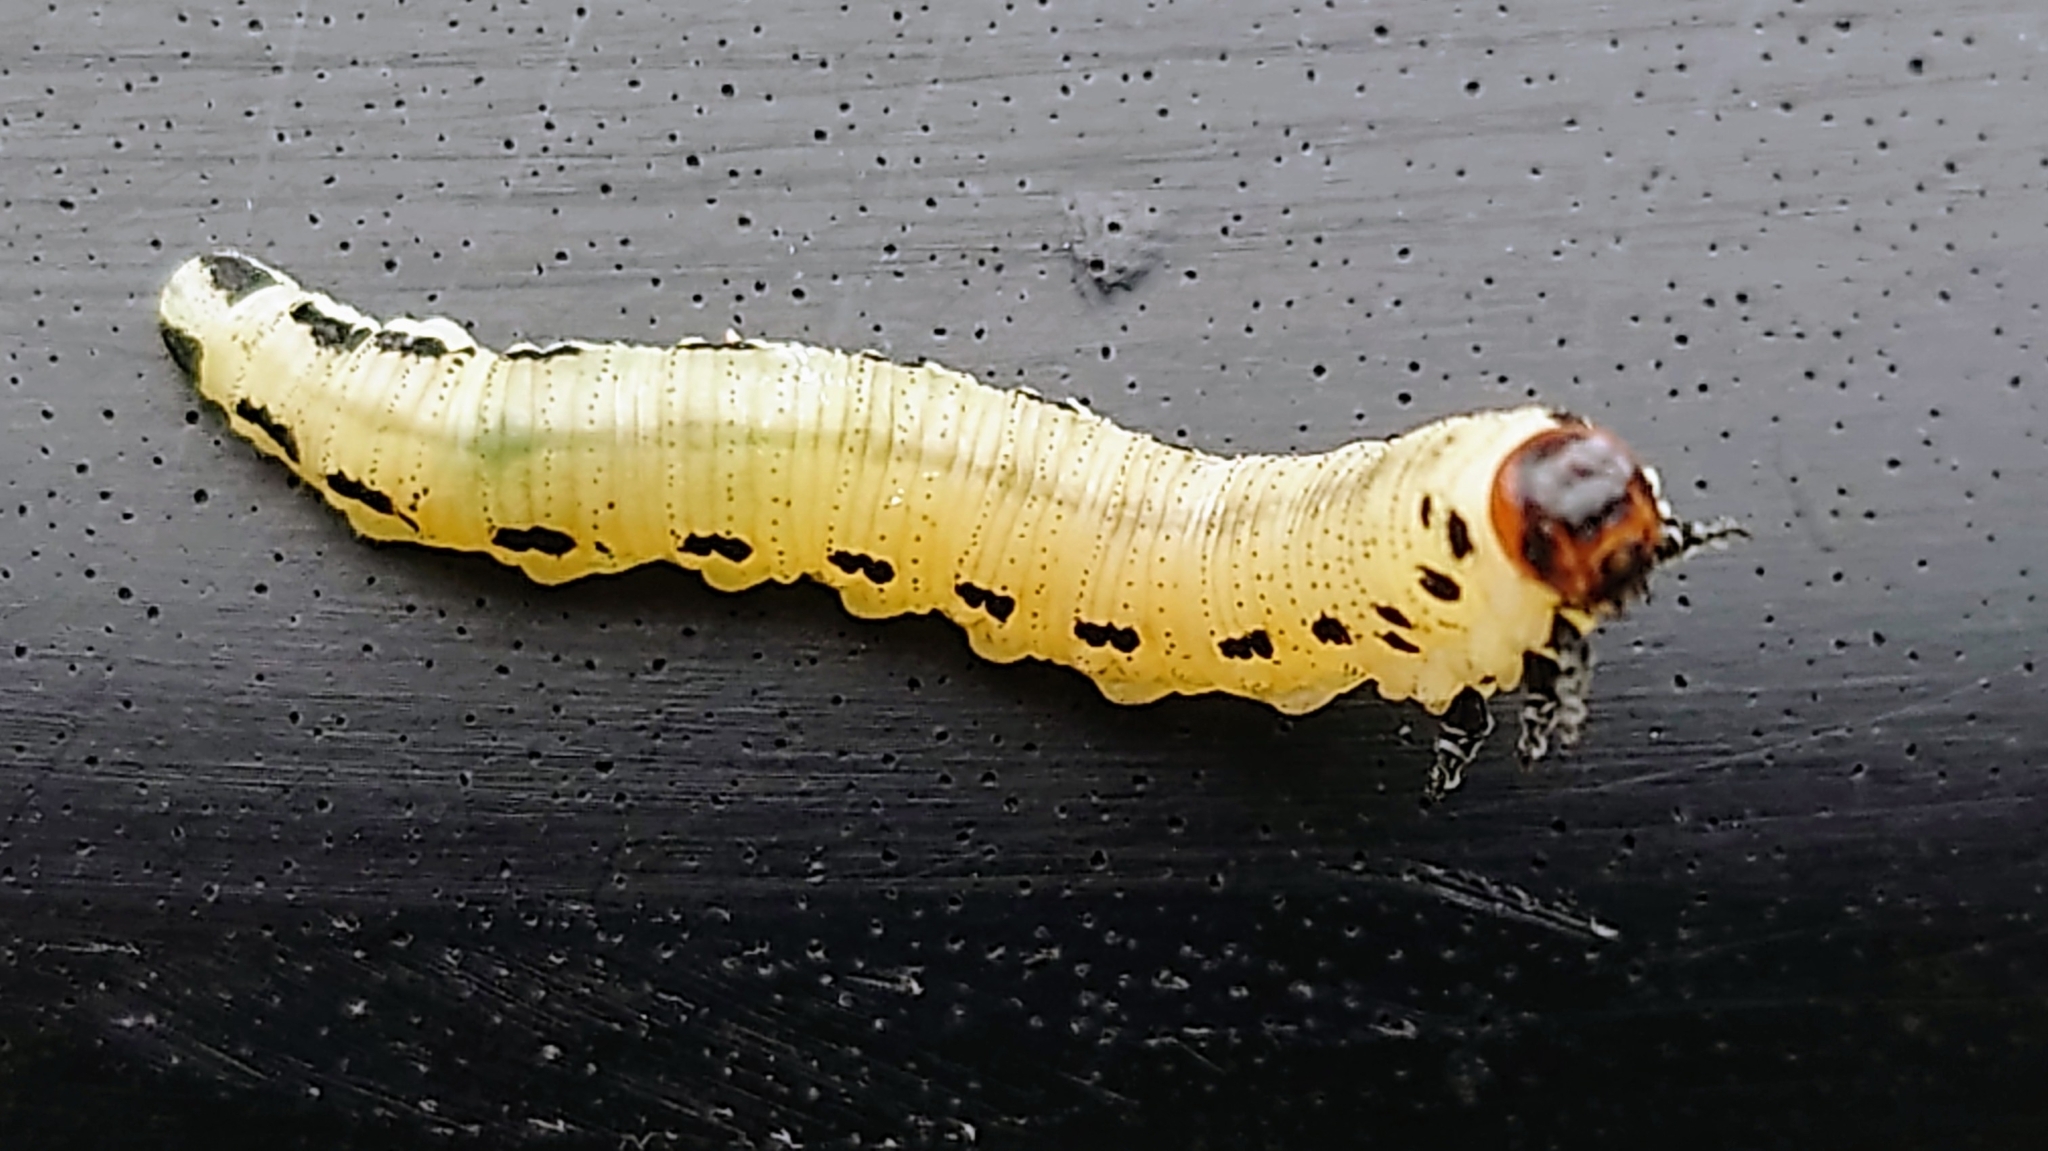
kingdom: Animalia
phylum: Arthropoda
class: Insecta
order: Hymenoptera
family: Diprionidae
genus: Diprion
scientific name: Diprion pini
